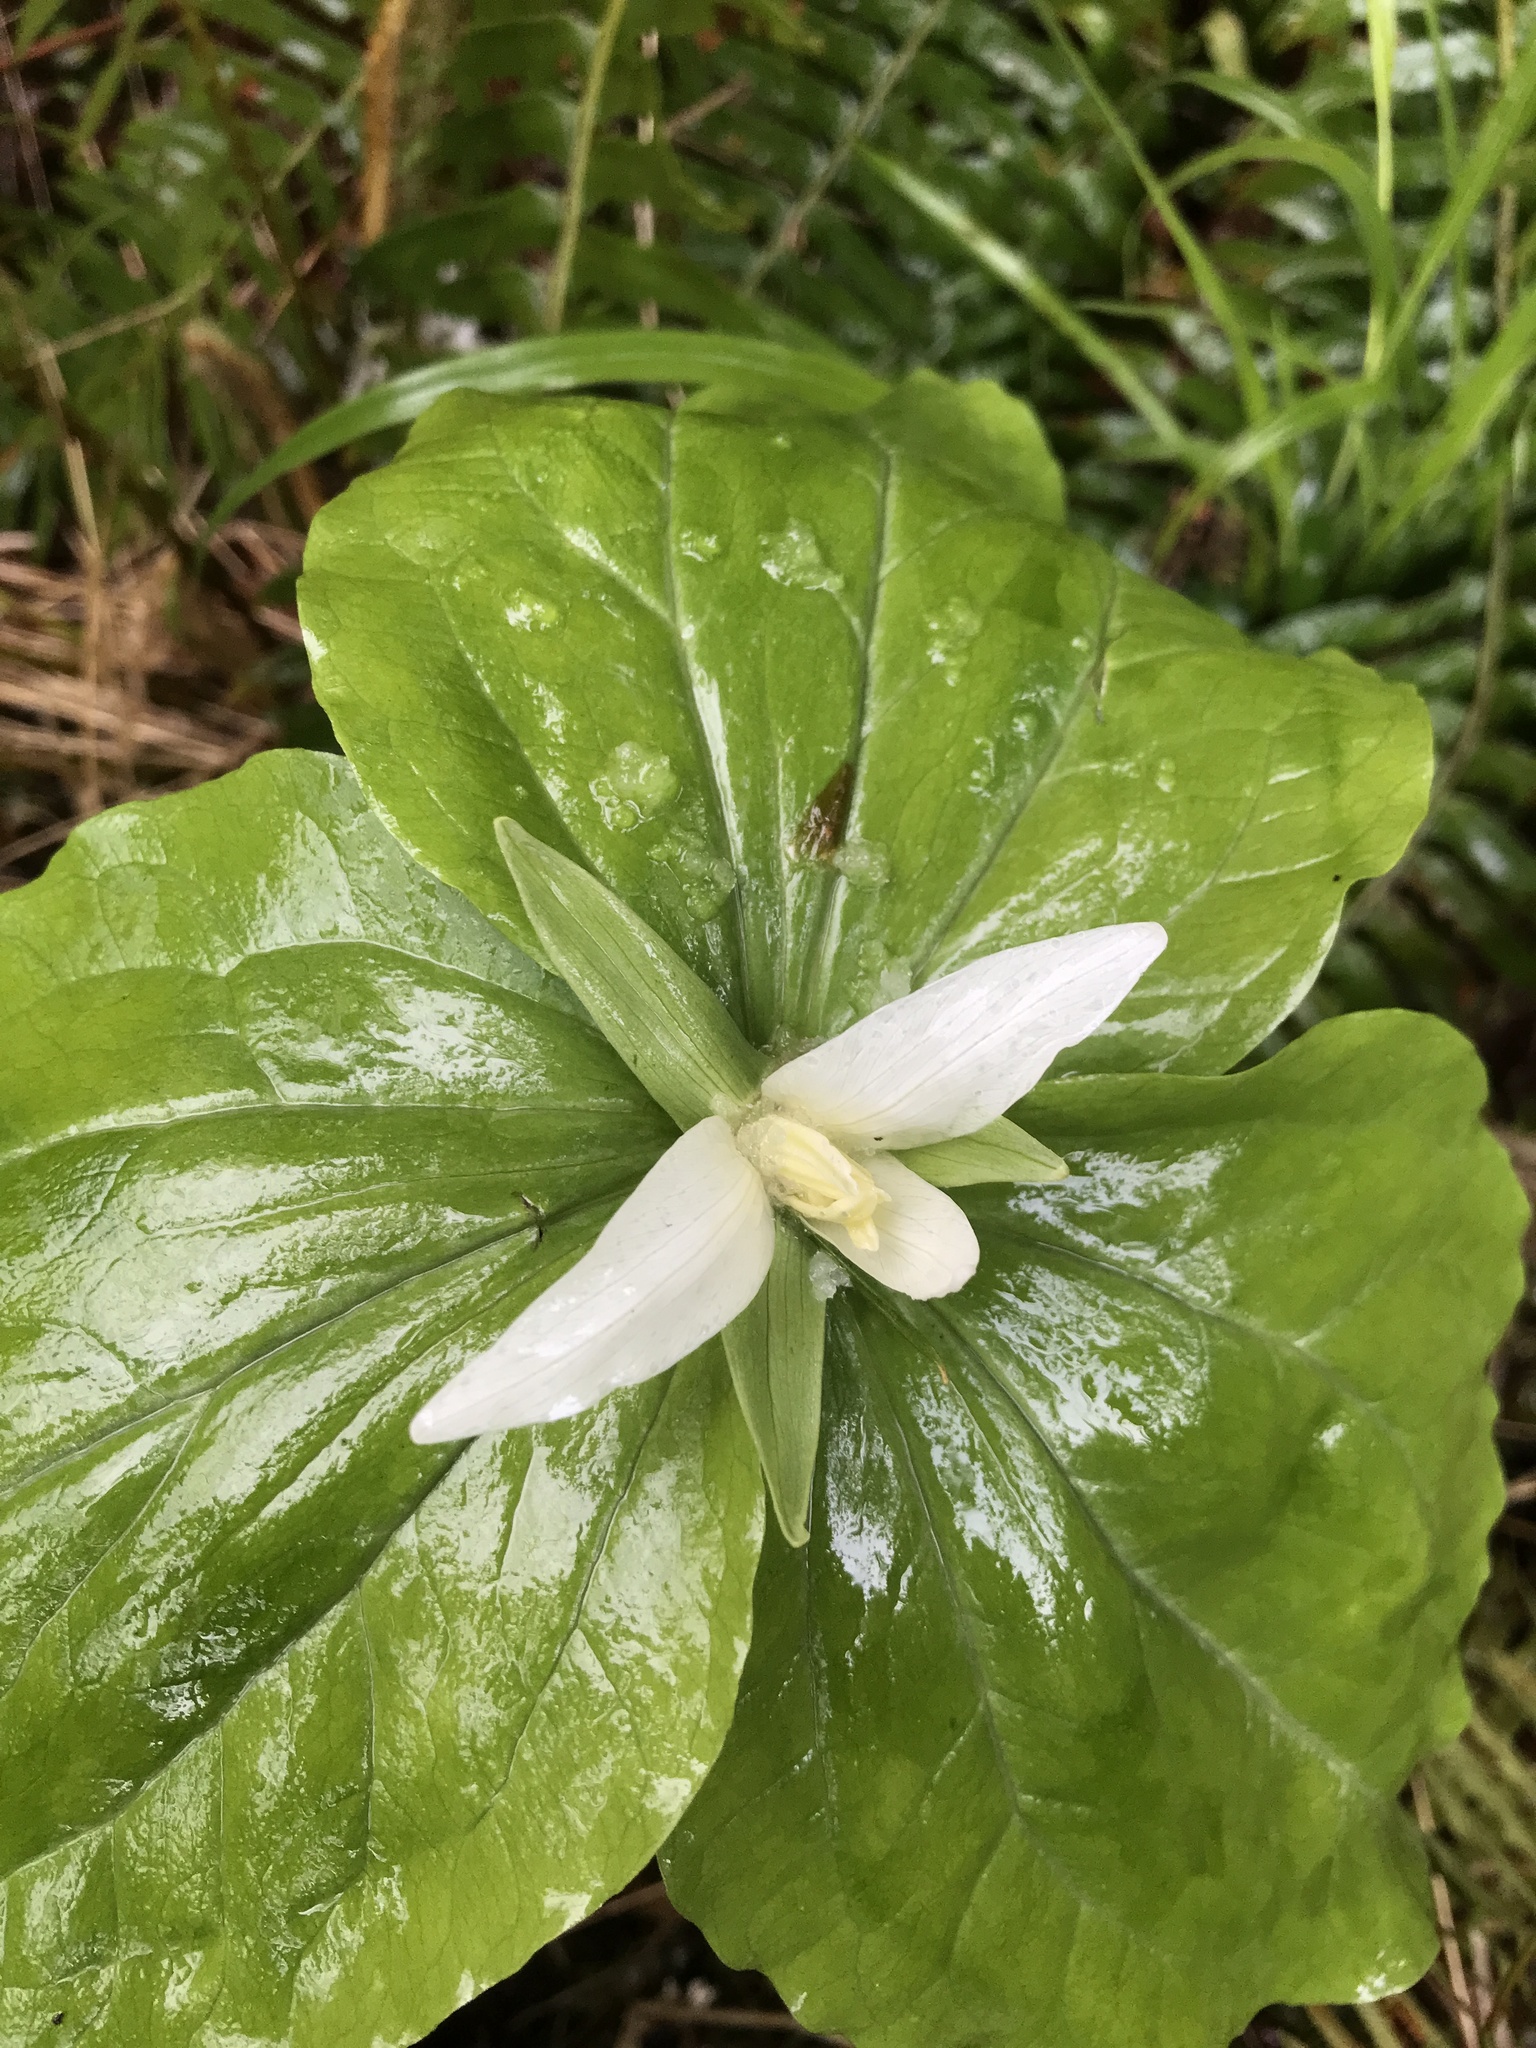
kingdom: Plantae
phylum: Tracheophyta
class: Liliopsida
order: Liliales
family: Melanthiaceae
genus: Trillium
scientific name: Trillium albidum
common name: Freeman's trillium
